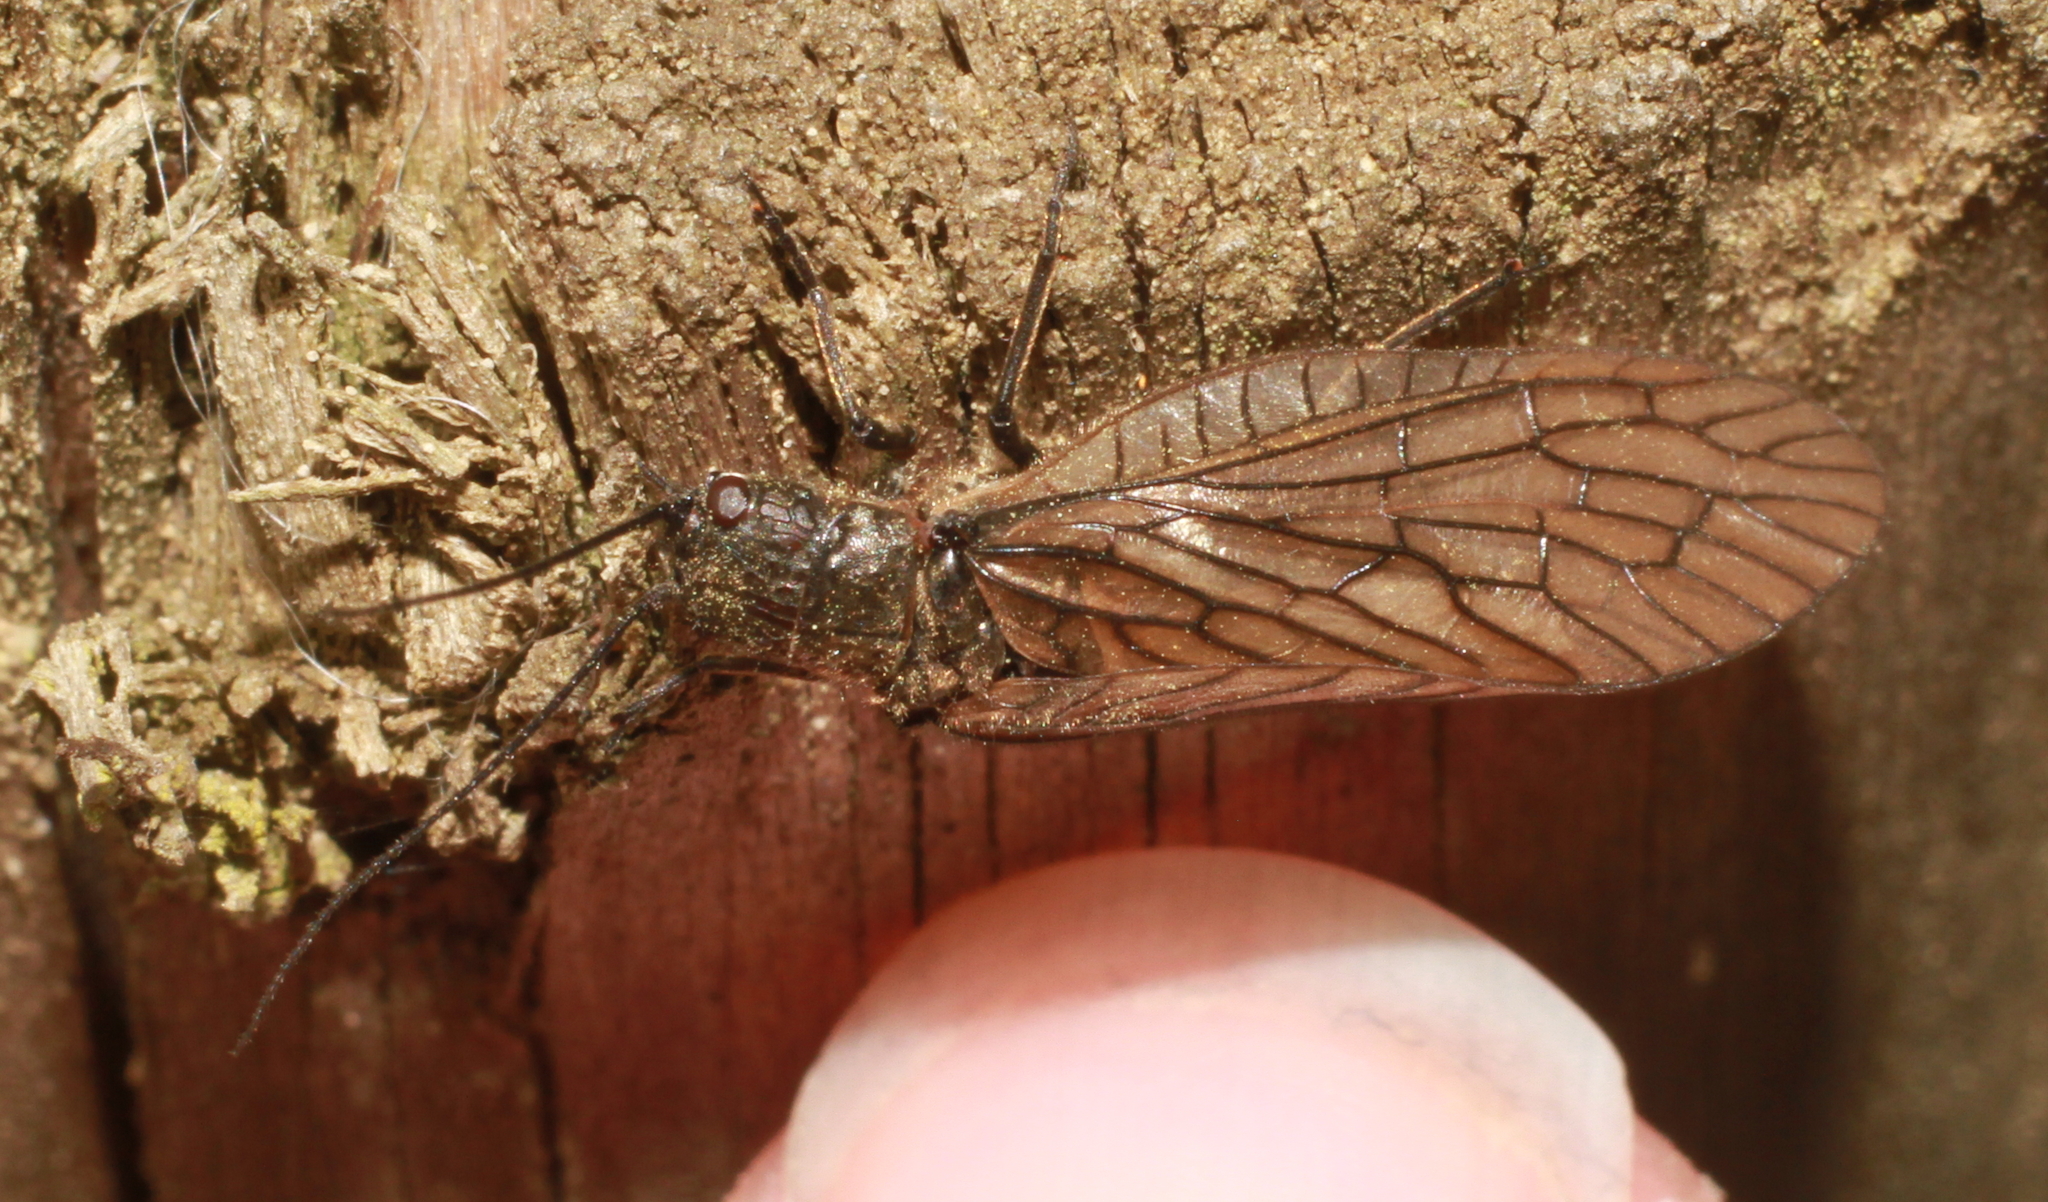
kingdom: Animalia
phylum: Arthropoda
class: Insecta
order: Megaloptera
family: Sialidae
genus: Sialis
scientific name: Sialis
